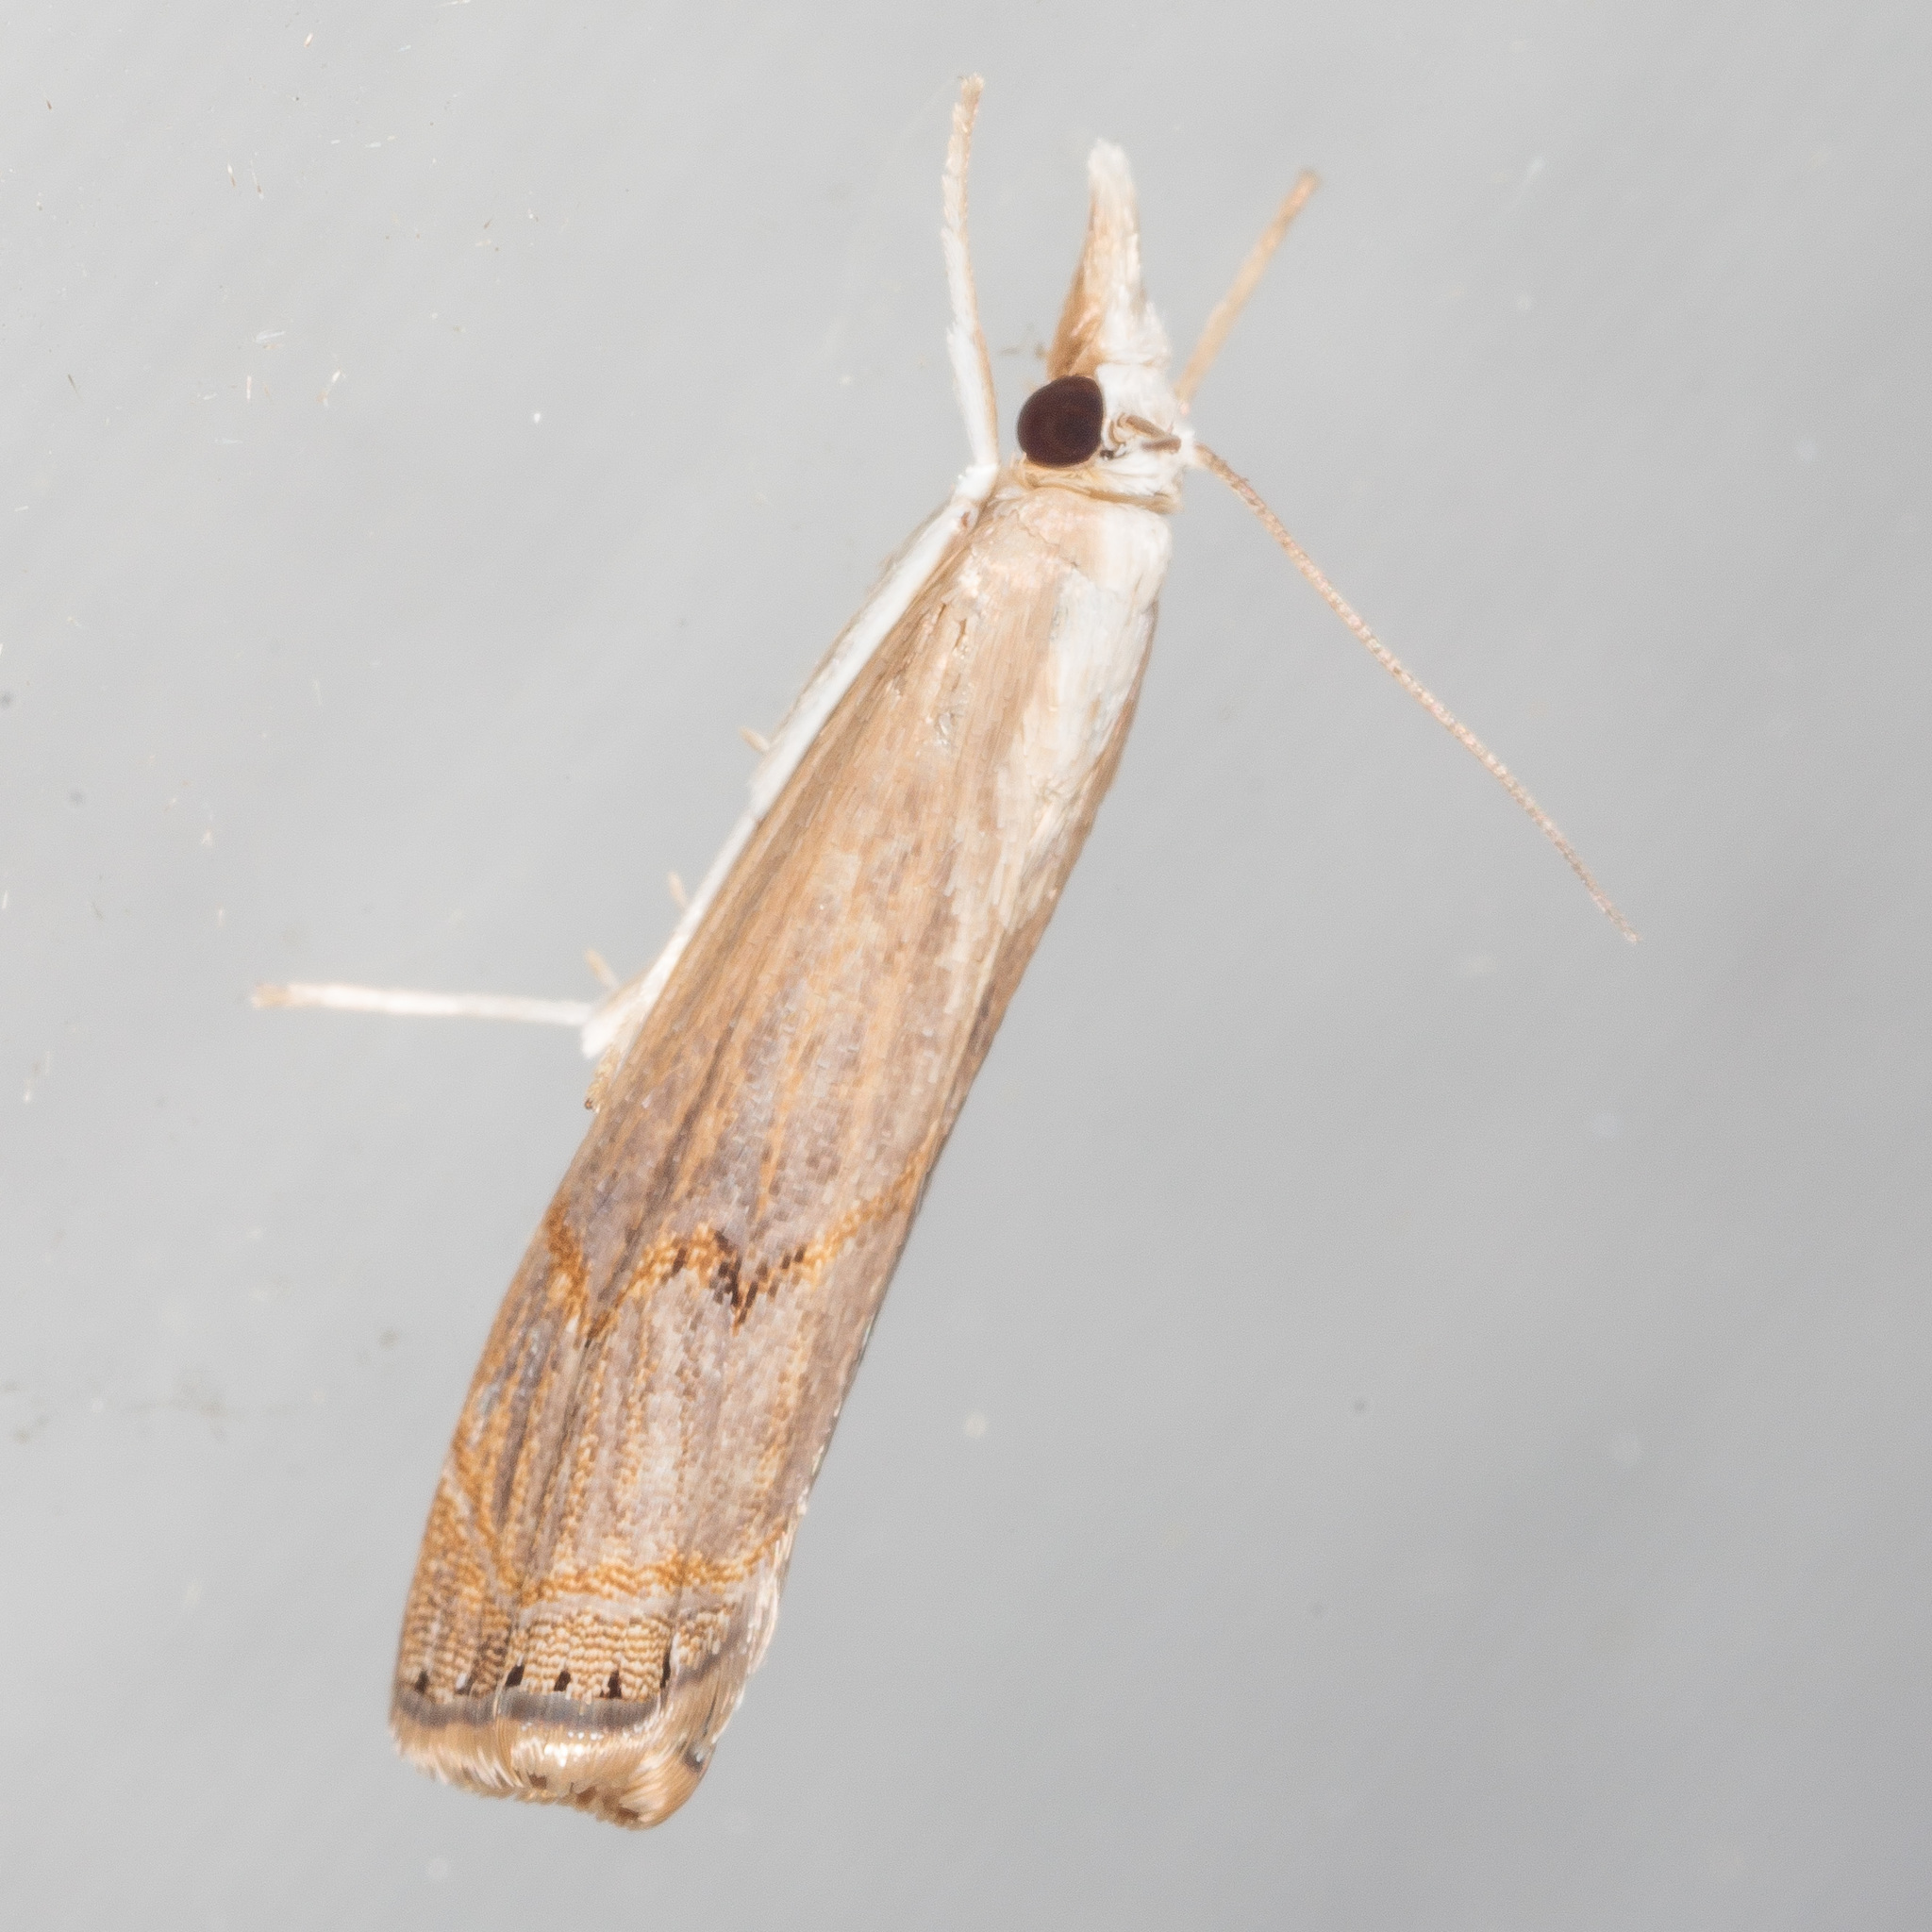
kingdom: Animalia
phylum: Arthropoda
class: Insecta
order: Lepidoptera
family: Crambidae
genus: Parapediasia
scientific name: Parapediasia teterellus
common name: Bluegrass webworm moth
